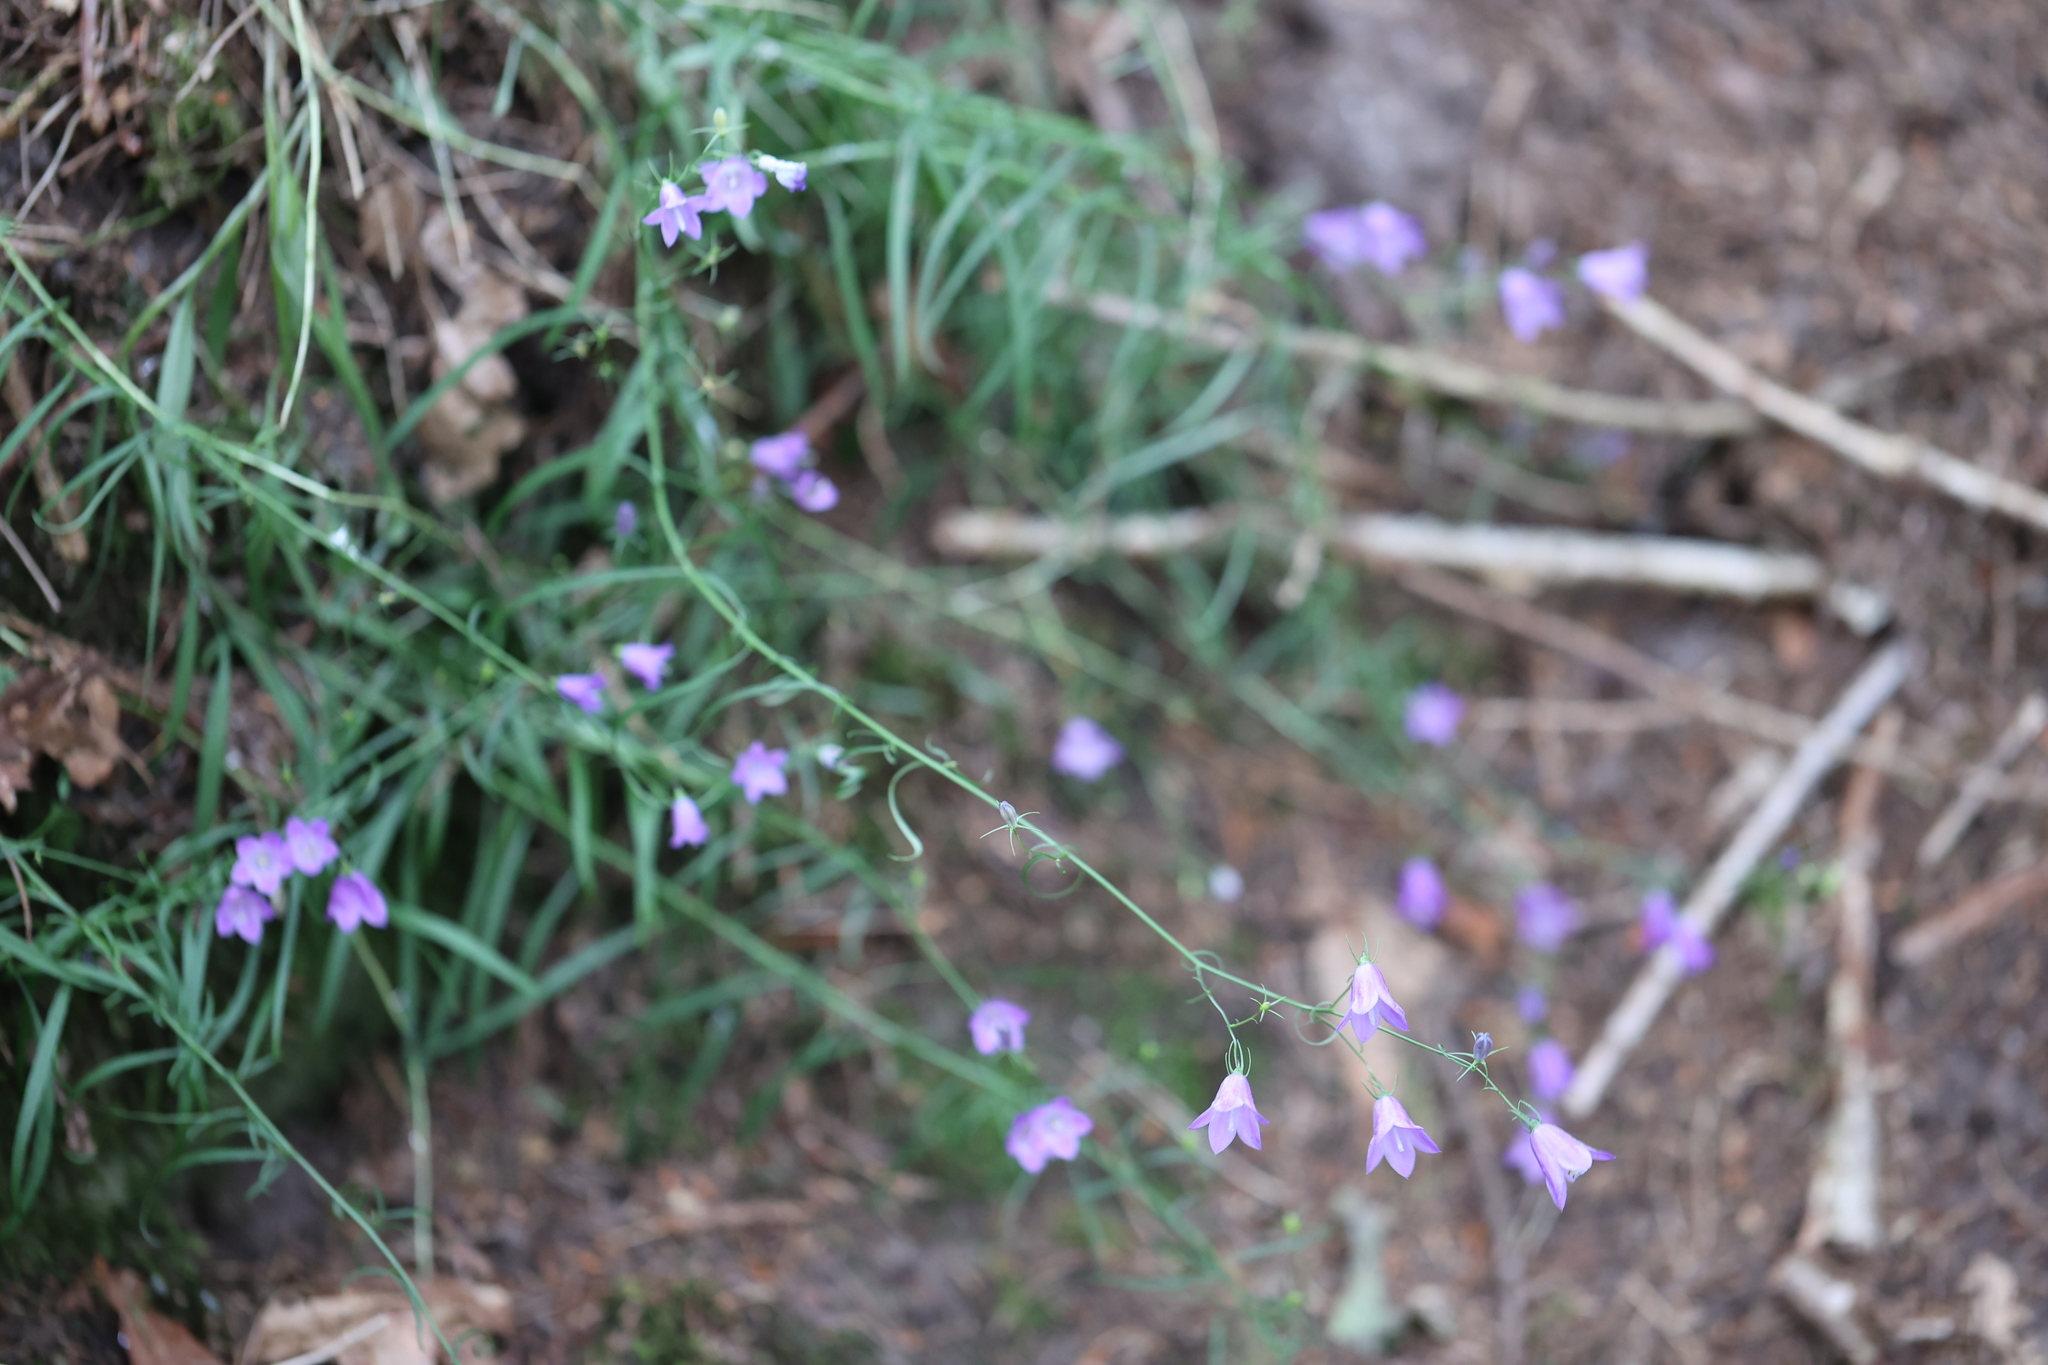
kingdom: Plantae
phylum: Tracheophyta
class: Magnoliopsida
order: Asterales
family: Campanulaceae
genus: Campanula
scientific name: Campanula rotundifolia
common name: Harebell
